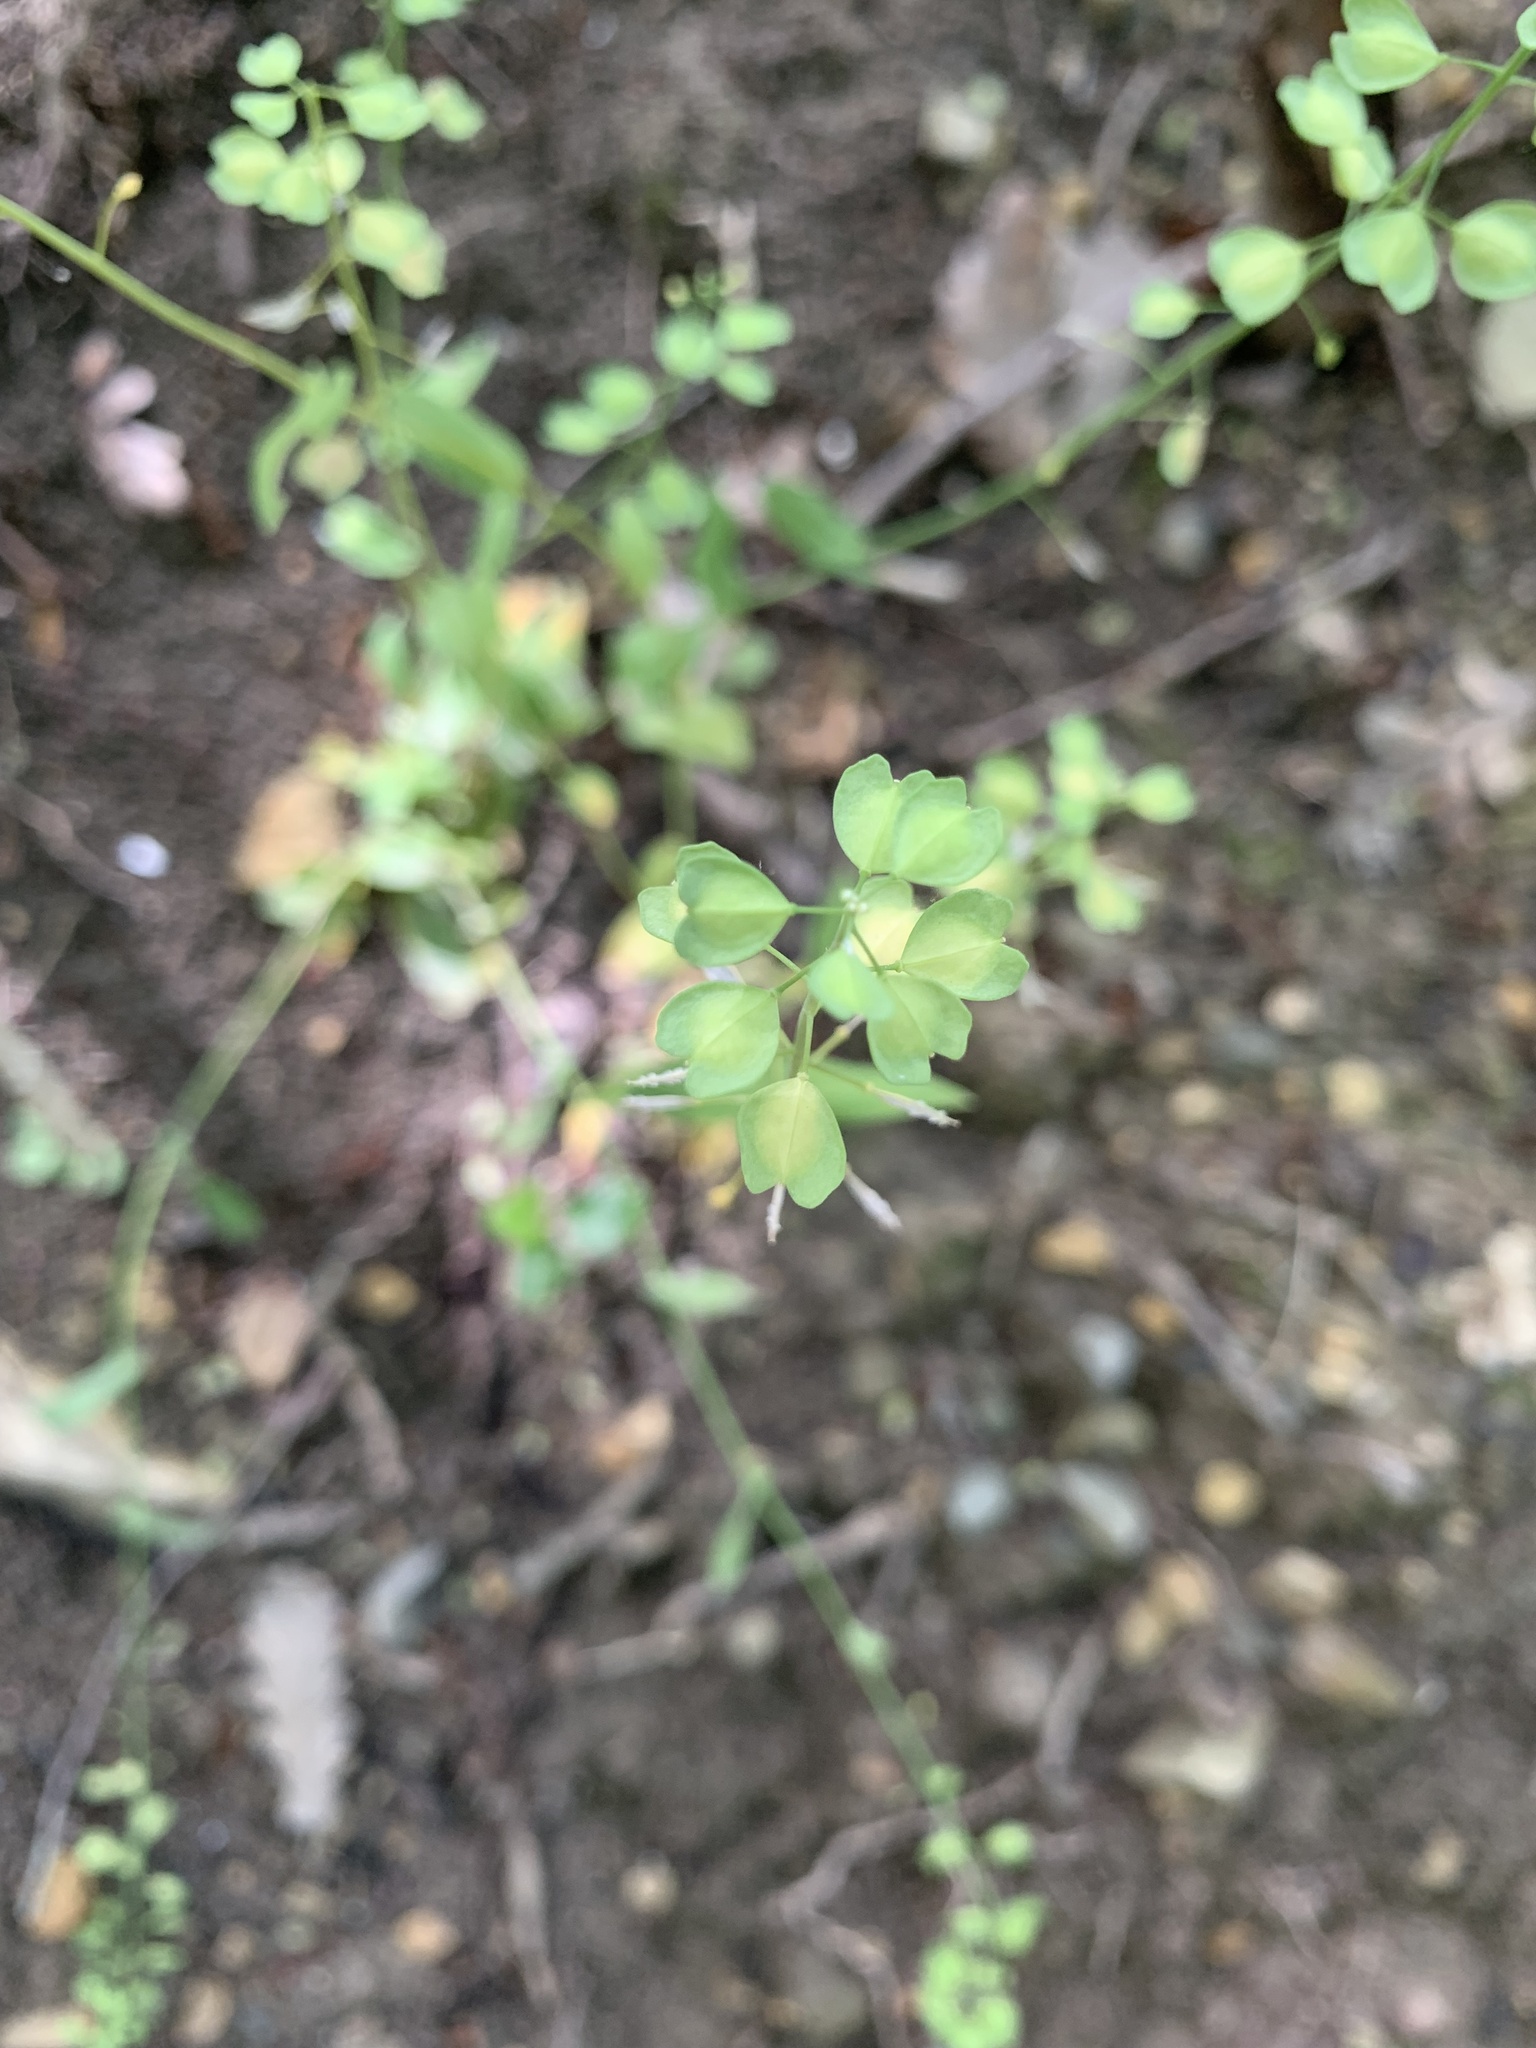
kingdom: Plantae
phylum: Tracheophyta
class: Magnoliopsida
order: Brassicales
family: Brassicaceae
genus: Noccaea
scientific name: Noccaea perfoliata
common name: Perfoliate pennycress
